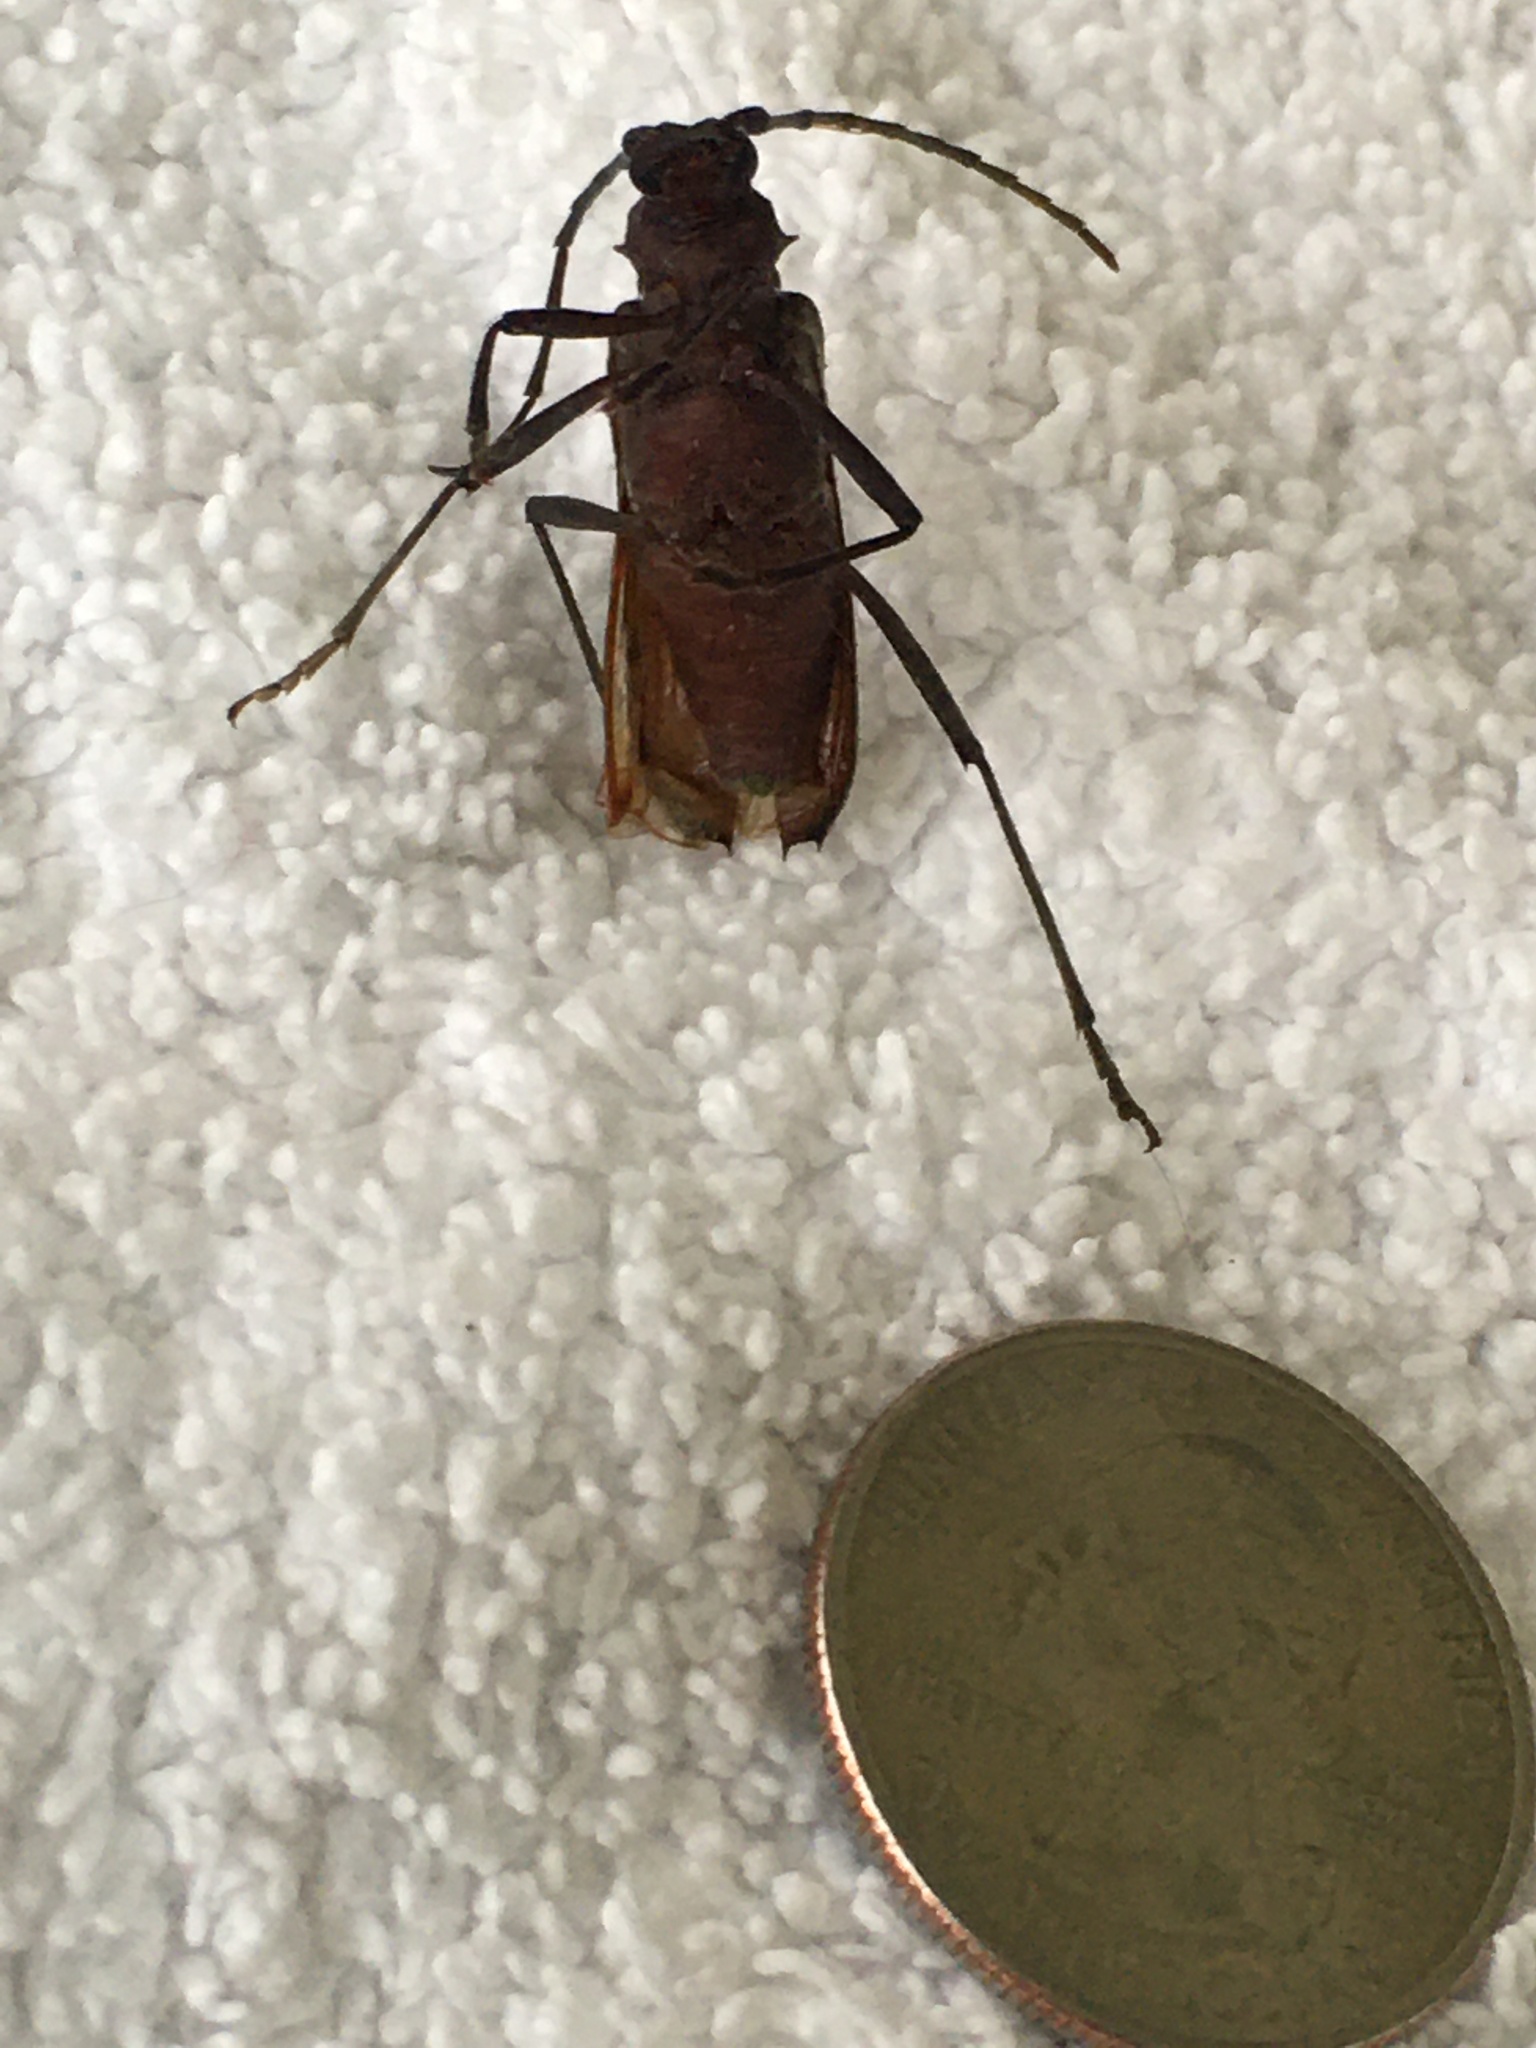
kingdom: Animalia
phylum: Arthropoda
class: Insecta
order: Coleoptera
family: Cerambycidae
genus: Knulliana
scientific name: Knulliana cincta
